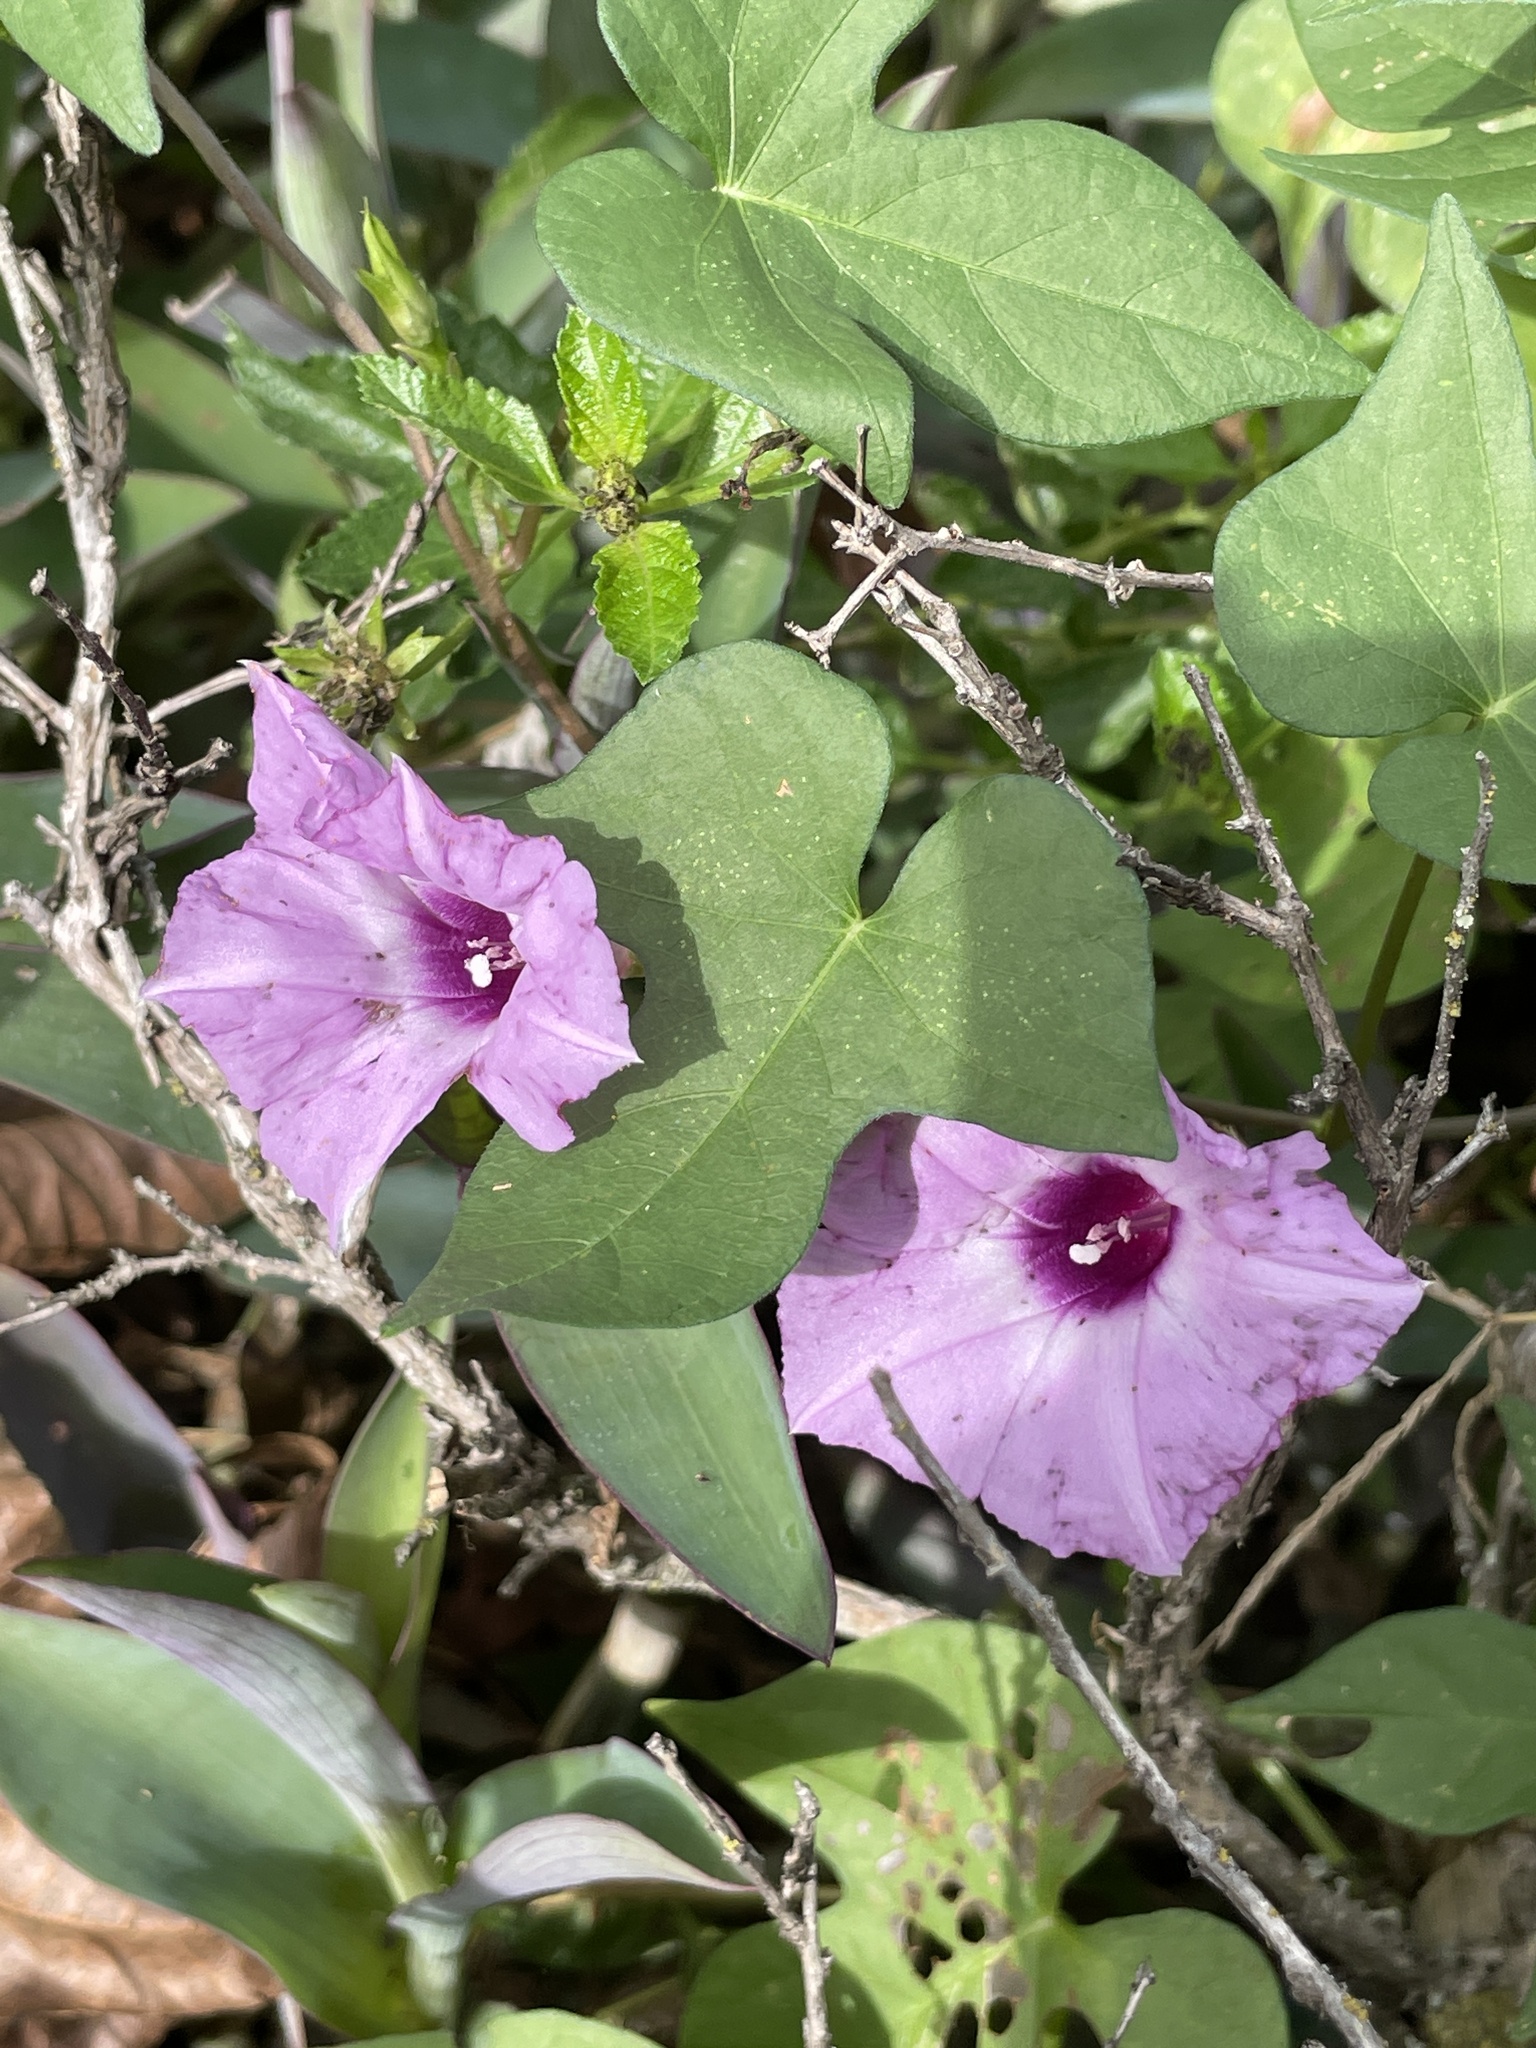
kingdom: Plantae
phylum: Tracheophyta
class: Magnoliopsida
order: Solanales
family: Convolvulaceae
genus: Ipomoea
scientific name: Ipomoea cordatotriloba
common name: Cotton morning glory
